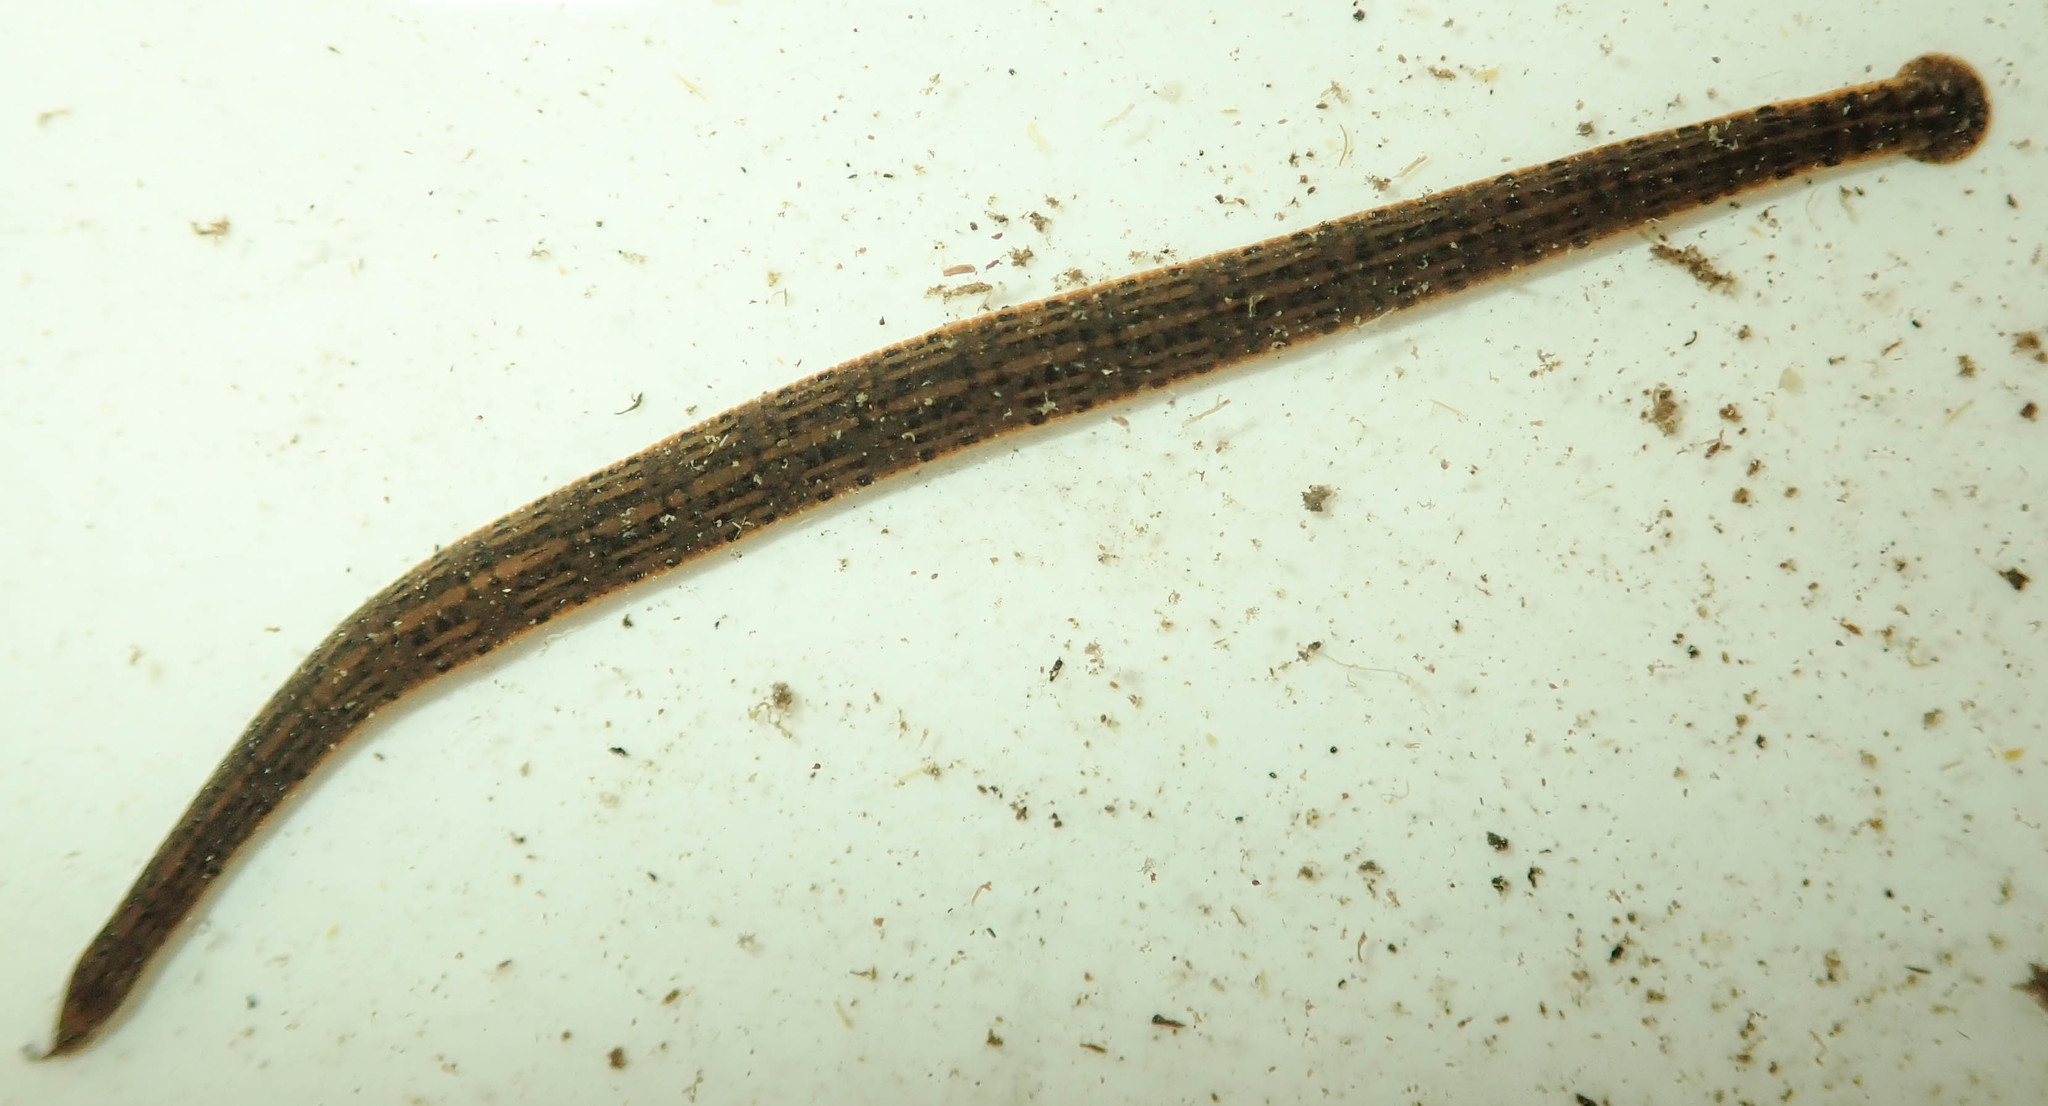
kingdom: Animalia
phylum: Annelida
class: Clitellata
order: Arhynchobdellida
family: Hirudinidae
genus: Asiaticobdella
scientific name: Asiaticobdella fenestrata
